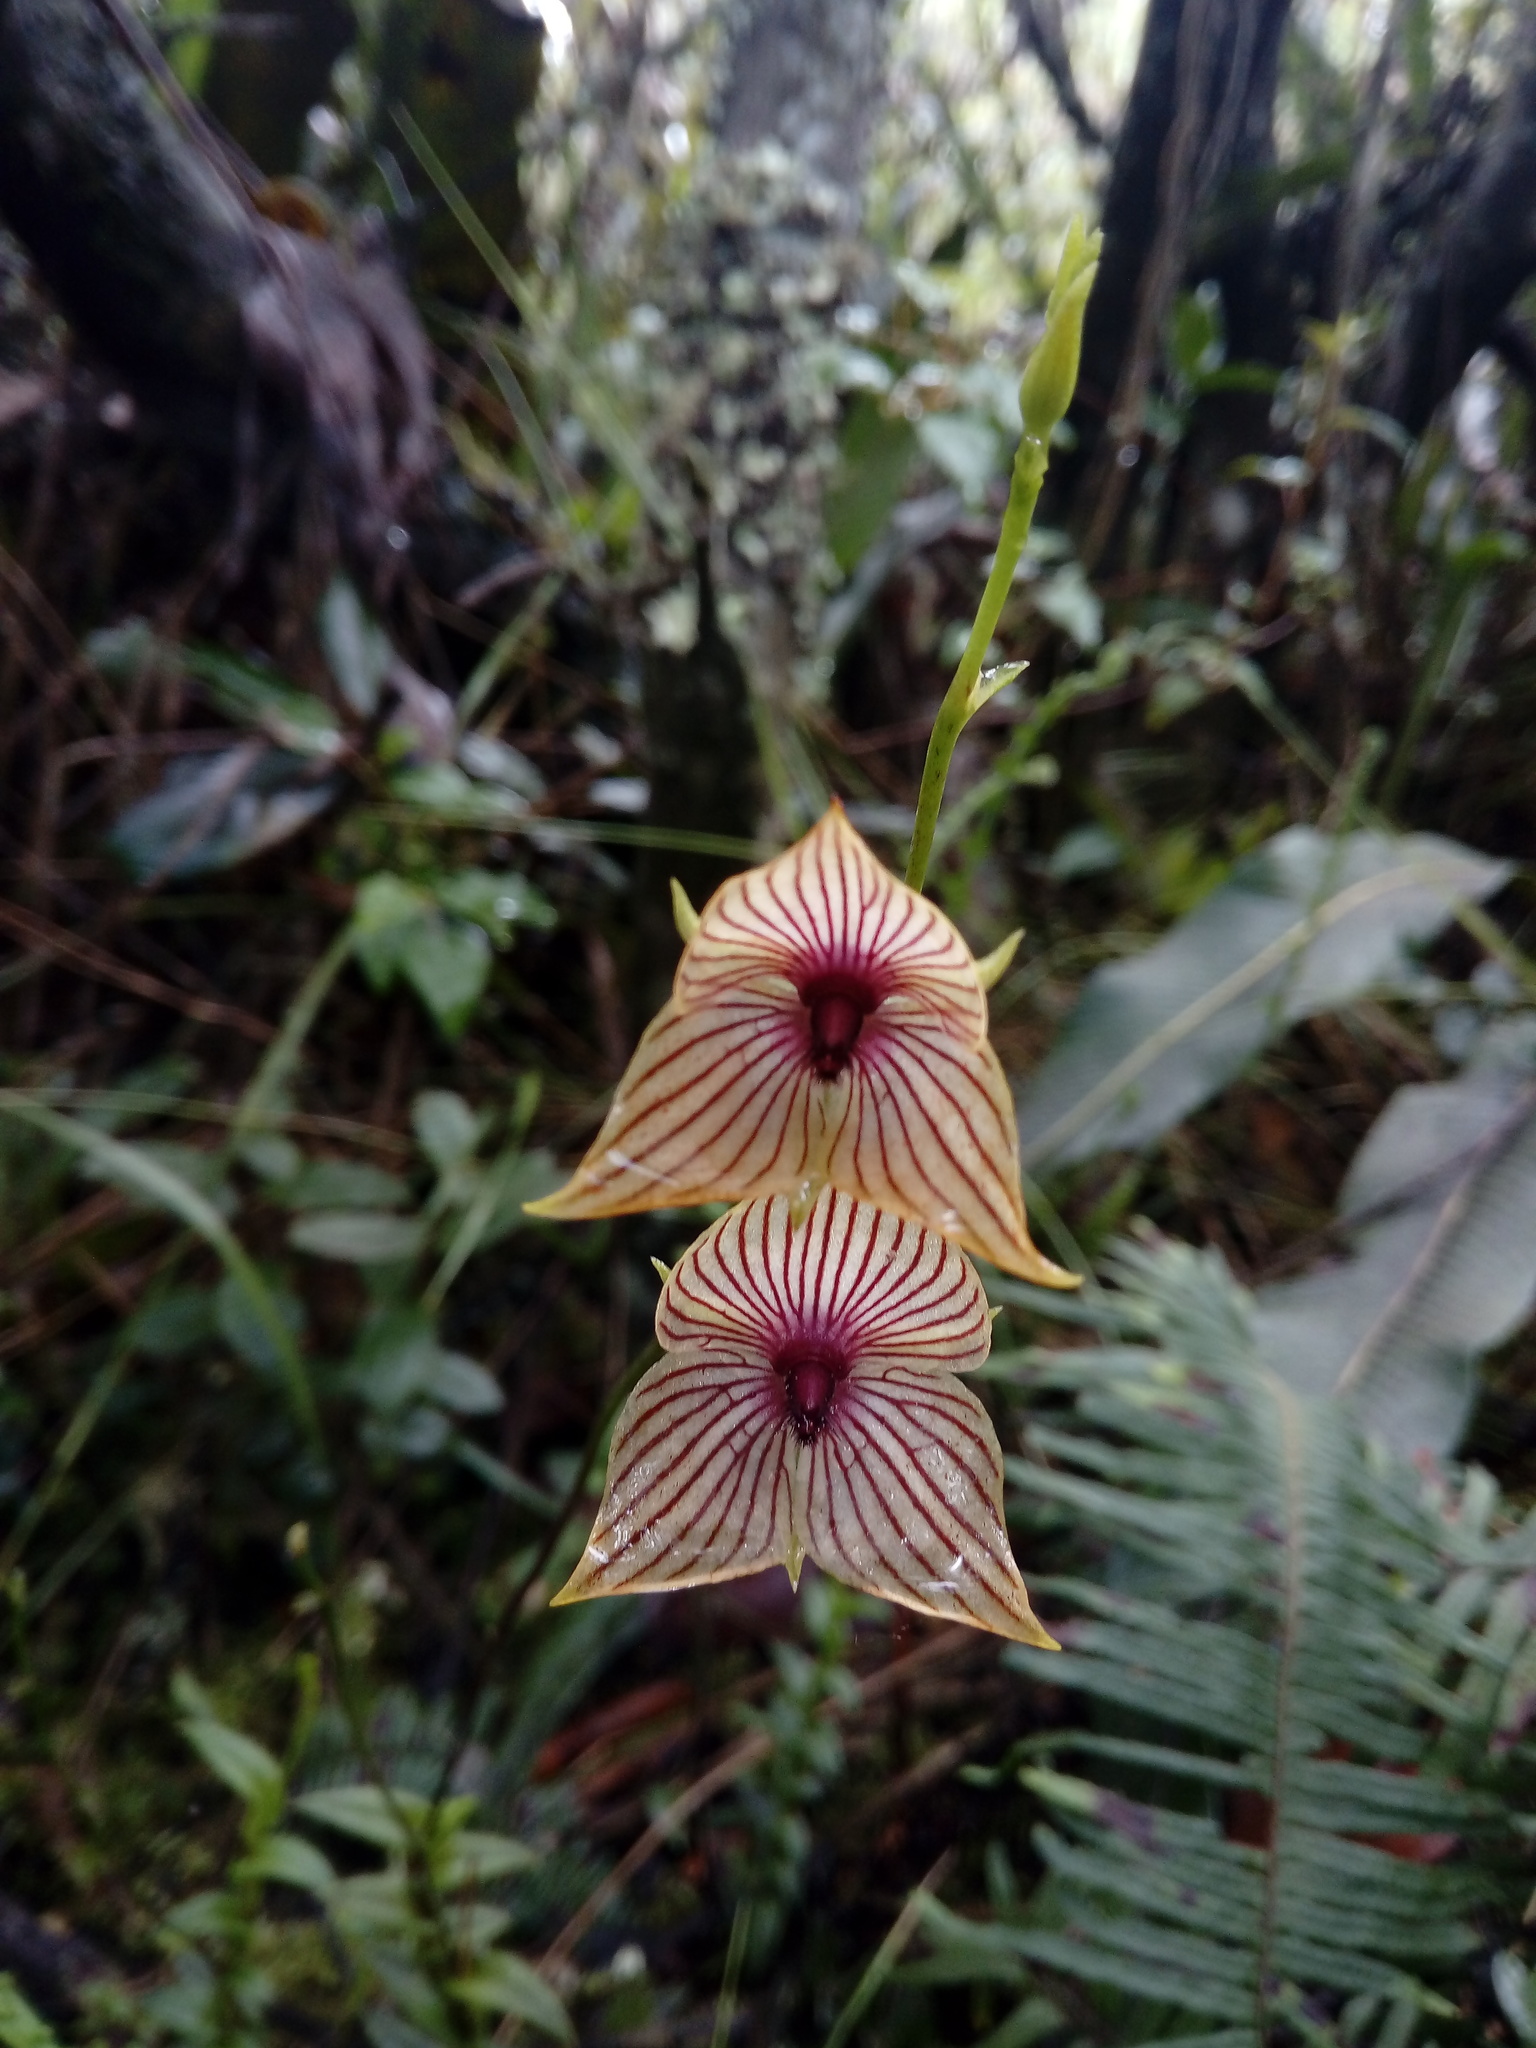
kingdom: Plantae
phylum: Tracheophyta
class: Liliopsida
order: Asparagales
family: Orchidaceae
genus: Telipogon
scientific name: Telipogon nervosus
